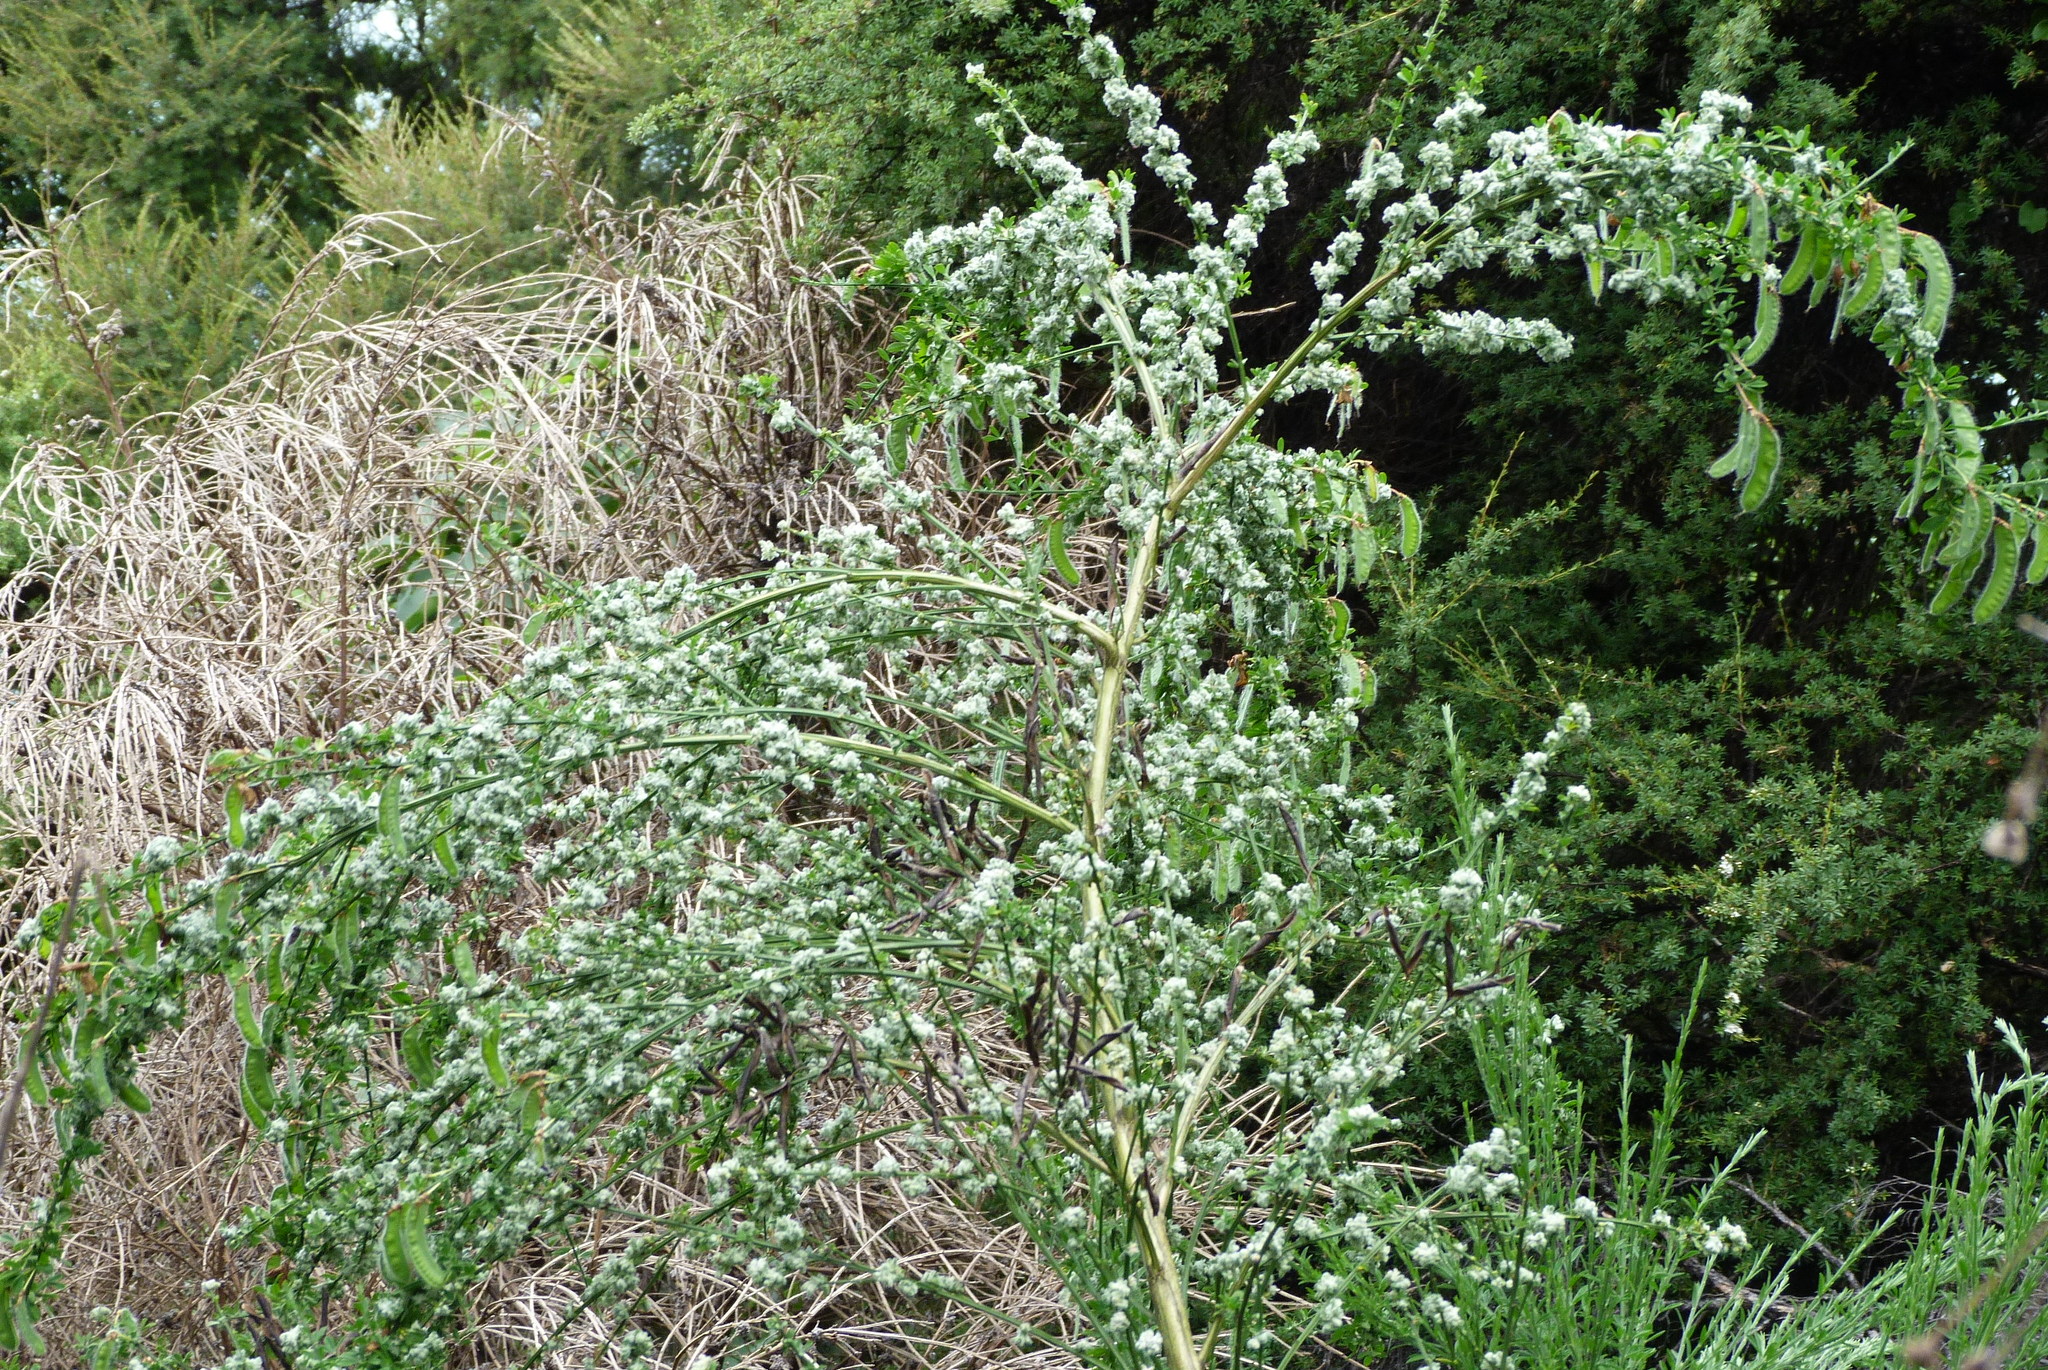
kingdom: Animalia
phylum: Arthropoda
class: Arachnida
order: Trombidiformes
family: Eriophyidae
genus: Aceria
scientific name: Aceria genistae
